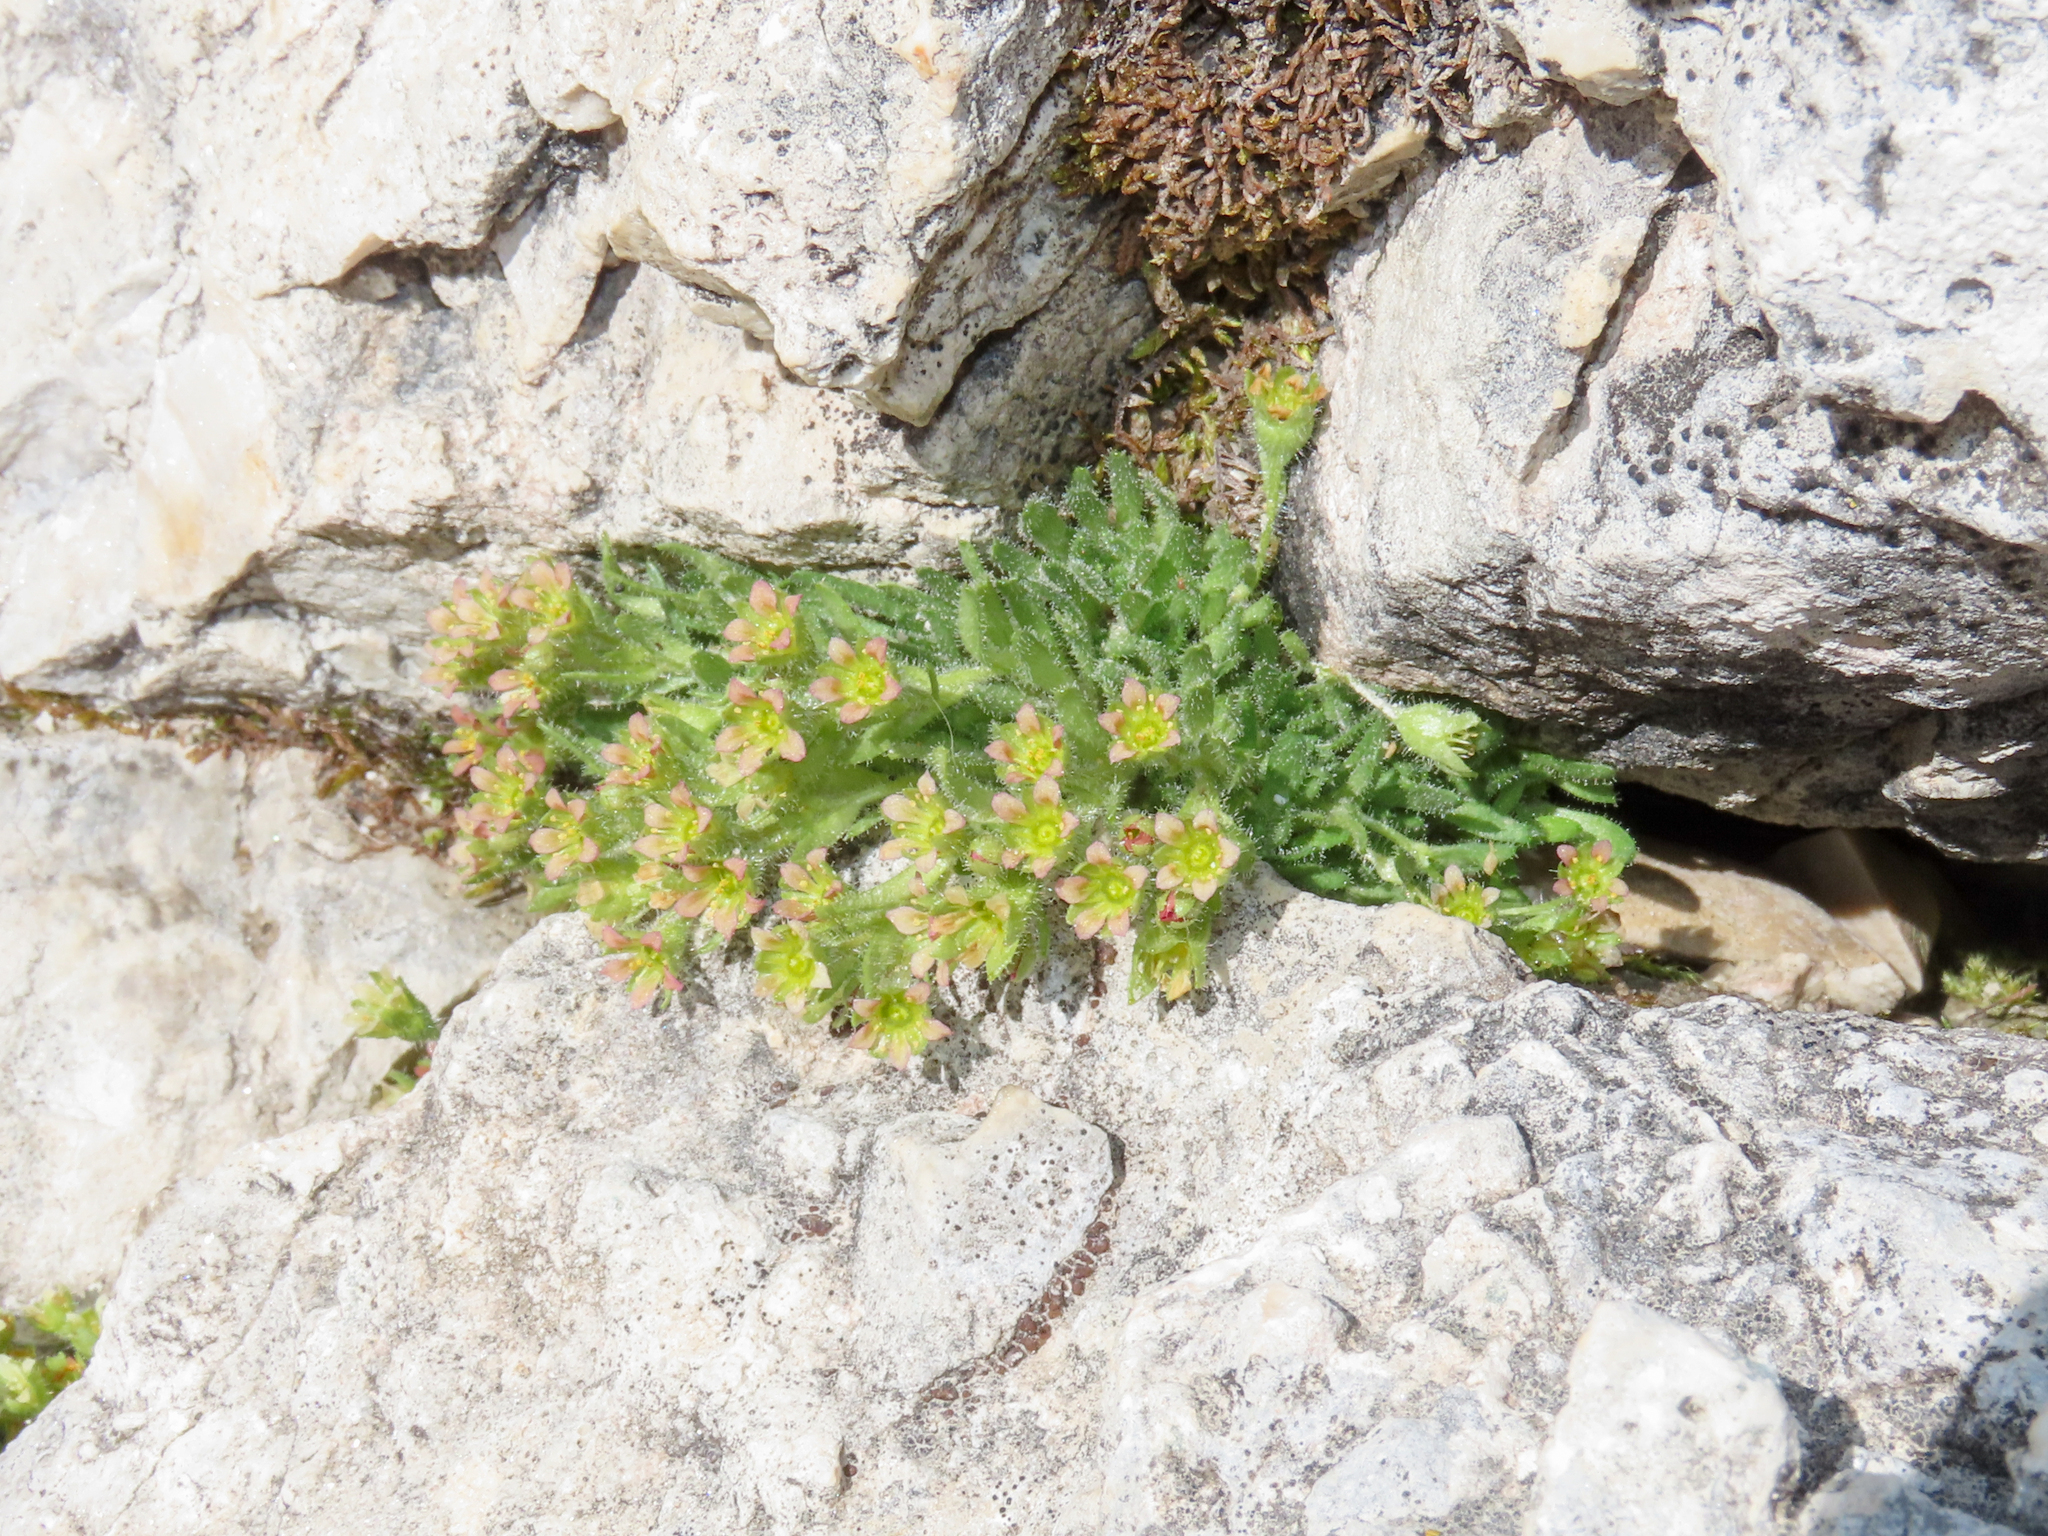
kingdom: Plantae
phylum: Tracheophyta
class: Magnoliopsida
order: Saxifragales
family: Saxifragaceae
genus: Saxifraga
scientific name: Saxifraga facchinii
